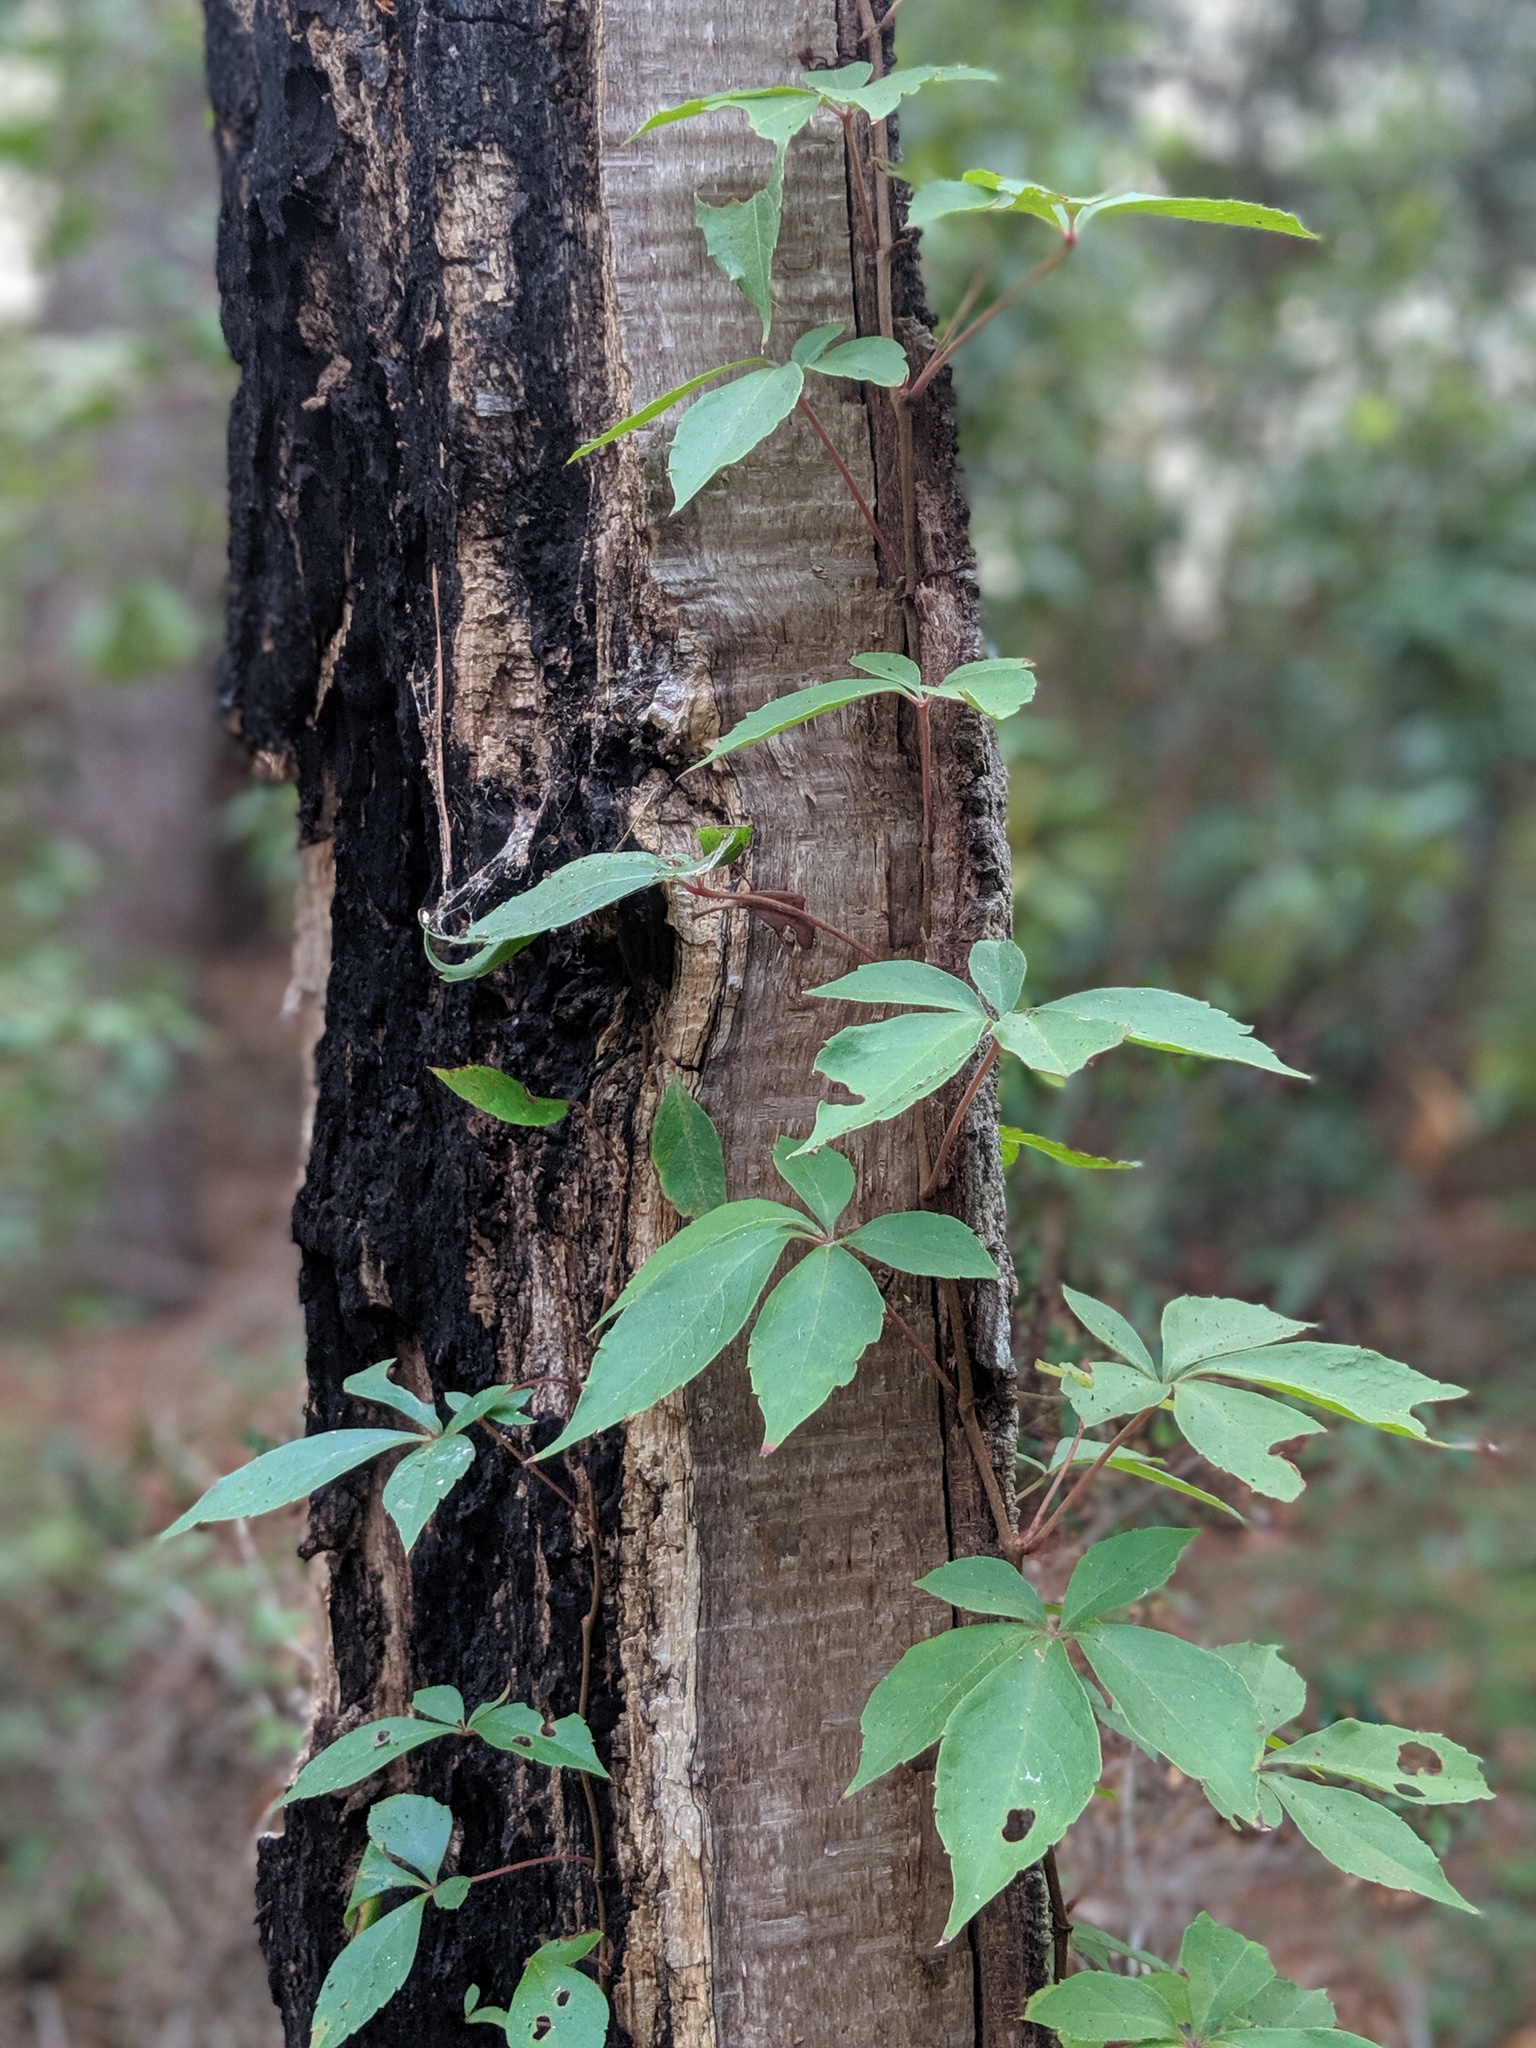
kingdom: Plantae
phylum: Tracheophyta
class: Magnoliopsida
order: Vitales
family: Vitaceae
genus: Parthenocissus
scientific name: Parthenocissus quinquefolia
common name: Virginia-creeper
